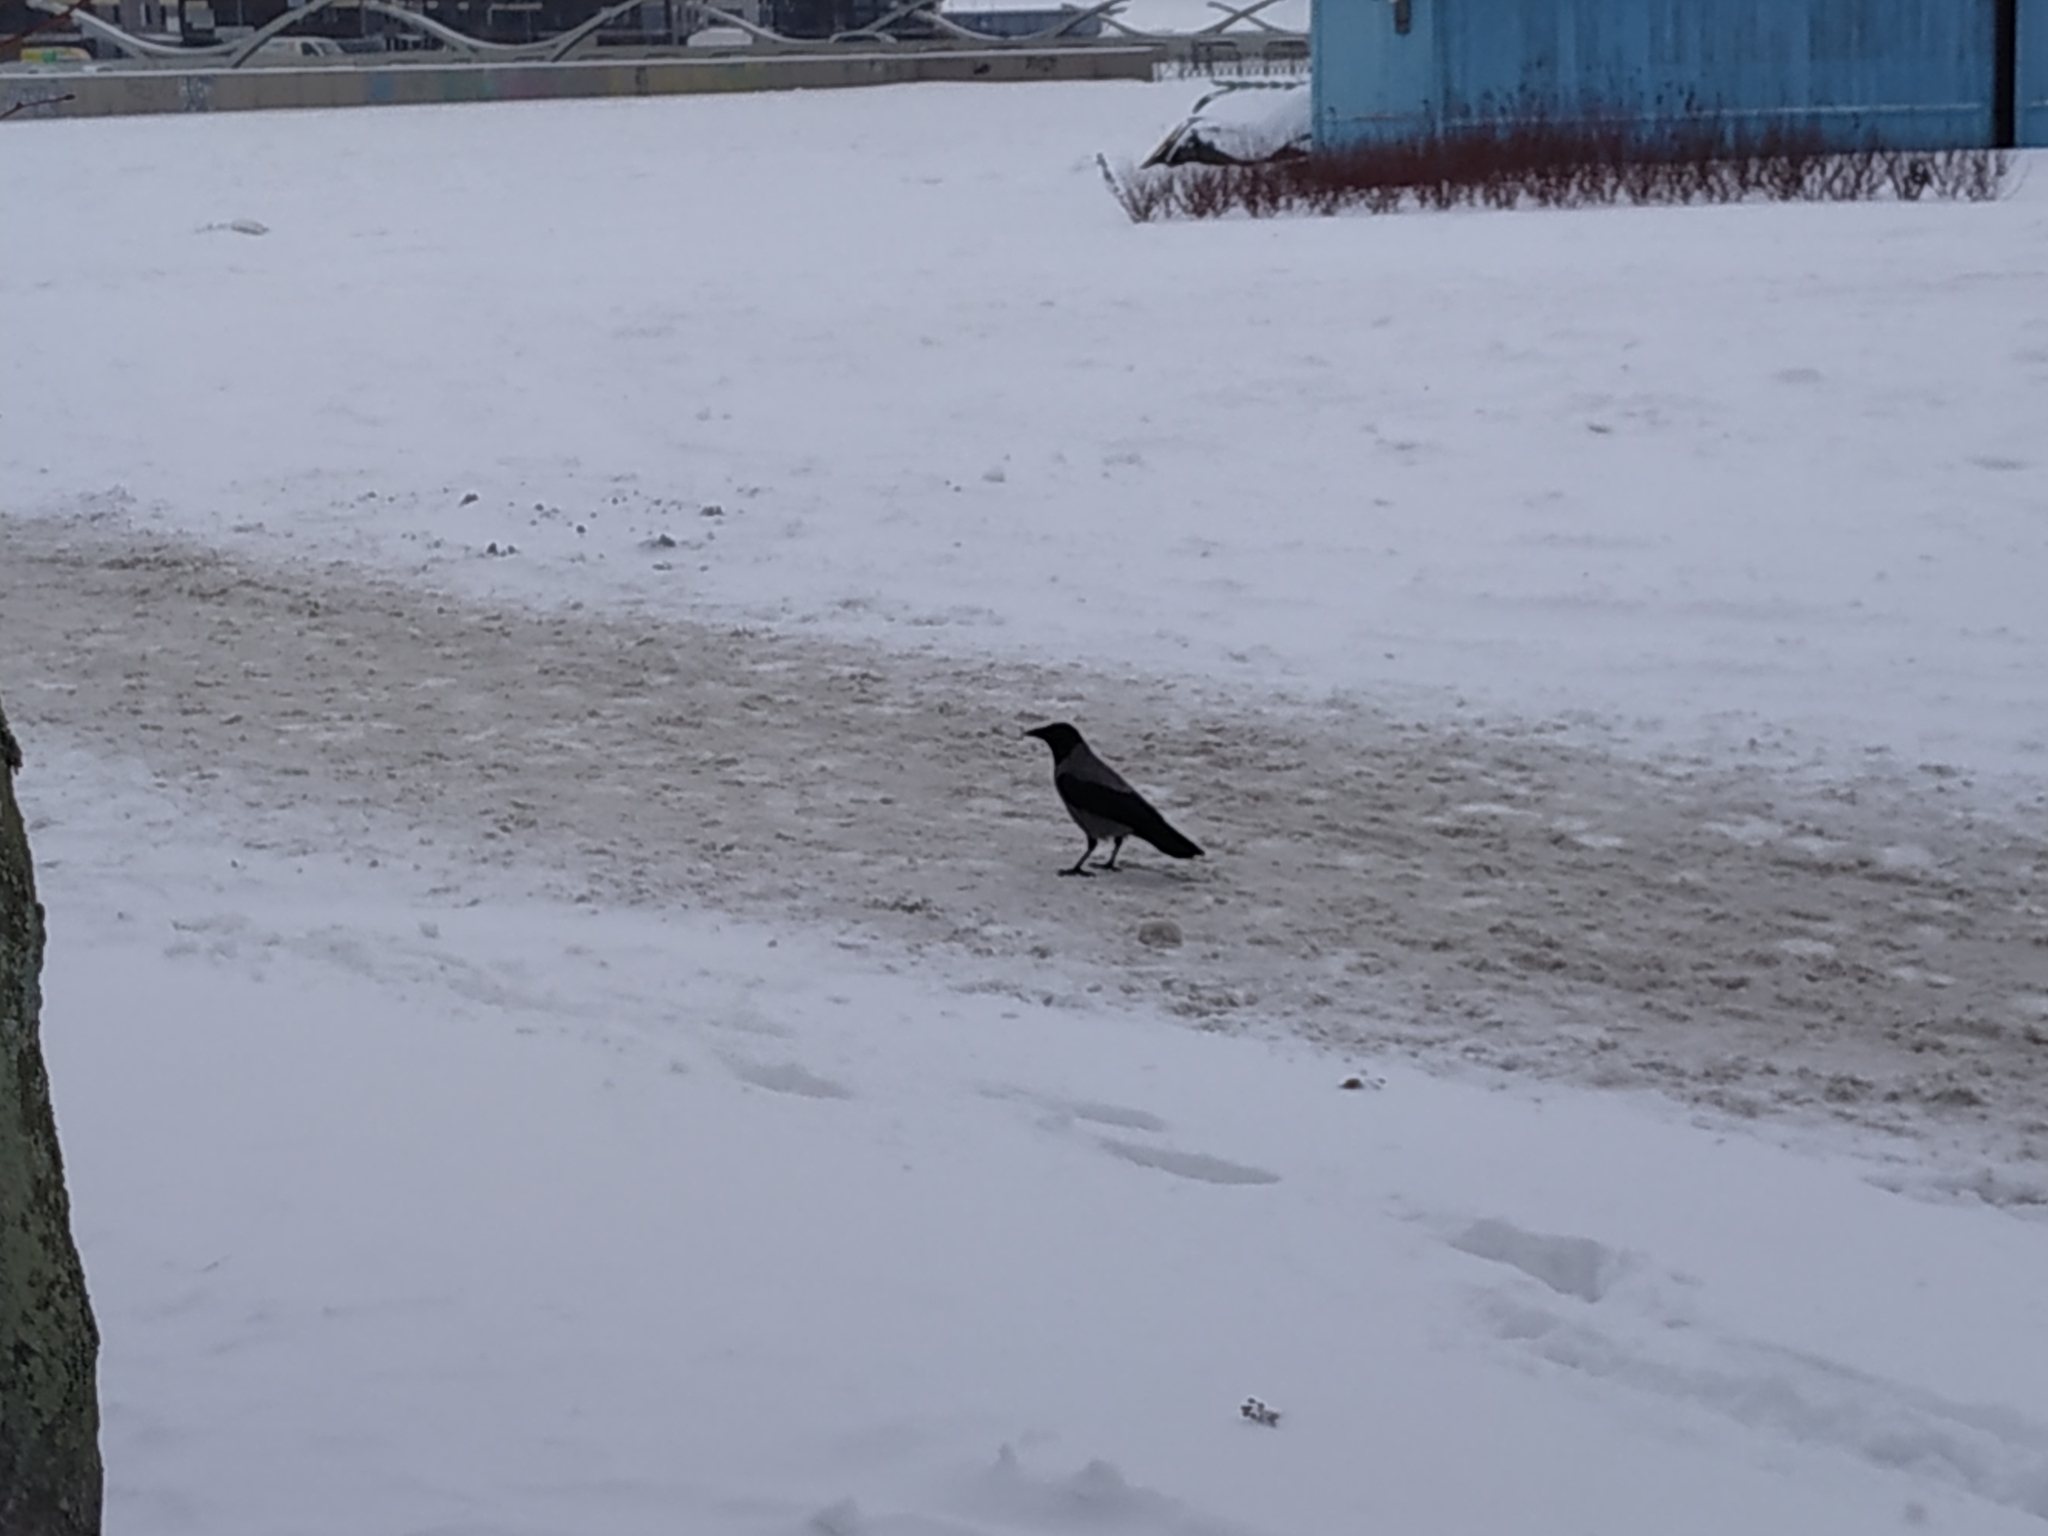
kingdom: Animalia
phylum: Chordata
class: Aves
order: Passeriformes
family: Corvidae
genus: Corvus
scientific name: Corvus cornix
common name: Hooded crow
